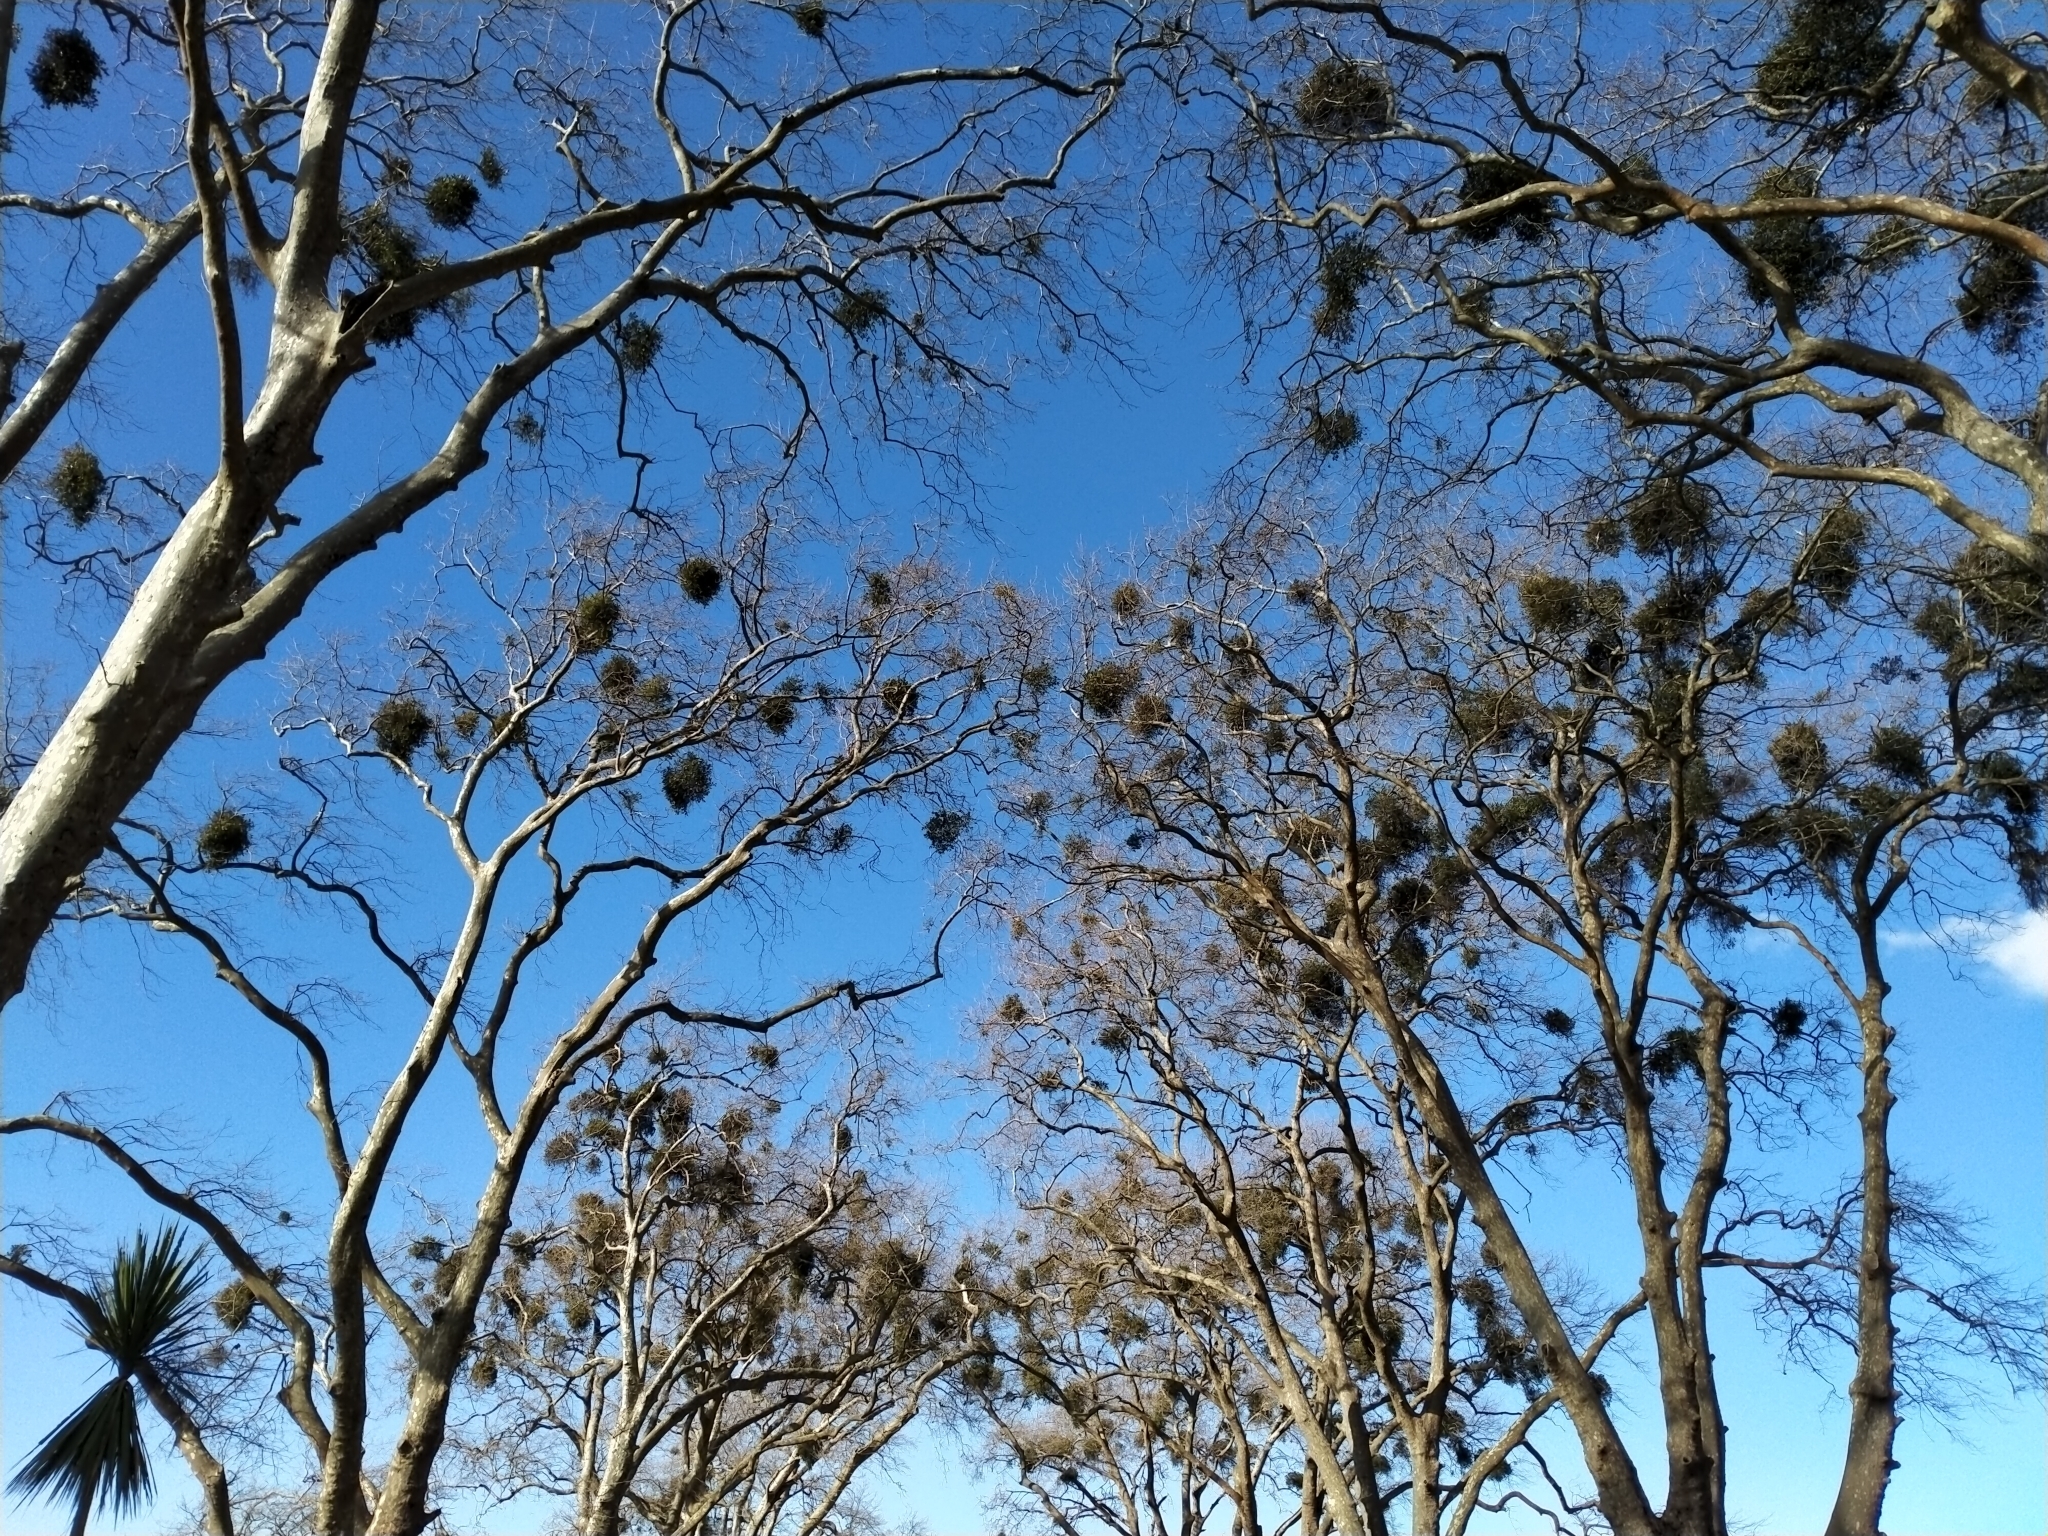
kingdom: Plantae
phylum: Tracheophyta
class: Magnoliopsida
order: Santalales
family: Loranthaceae
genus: Ileostylus
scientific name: Ileostylus micranthus
